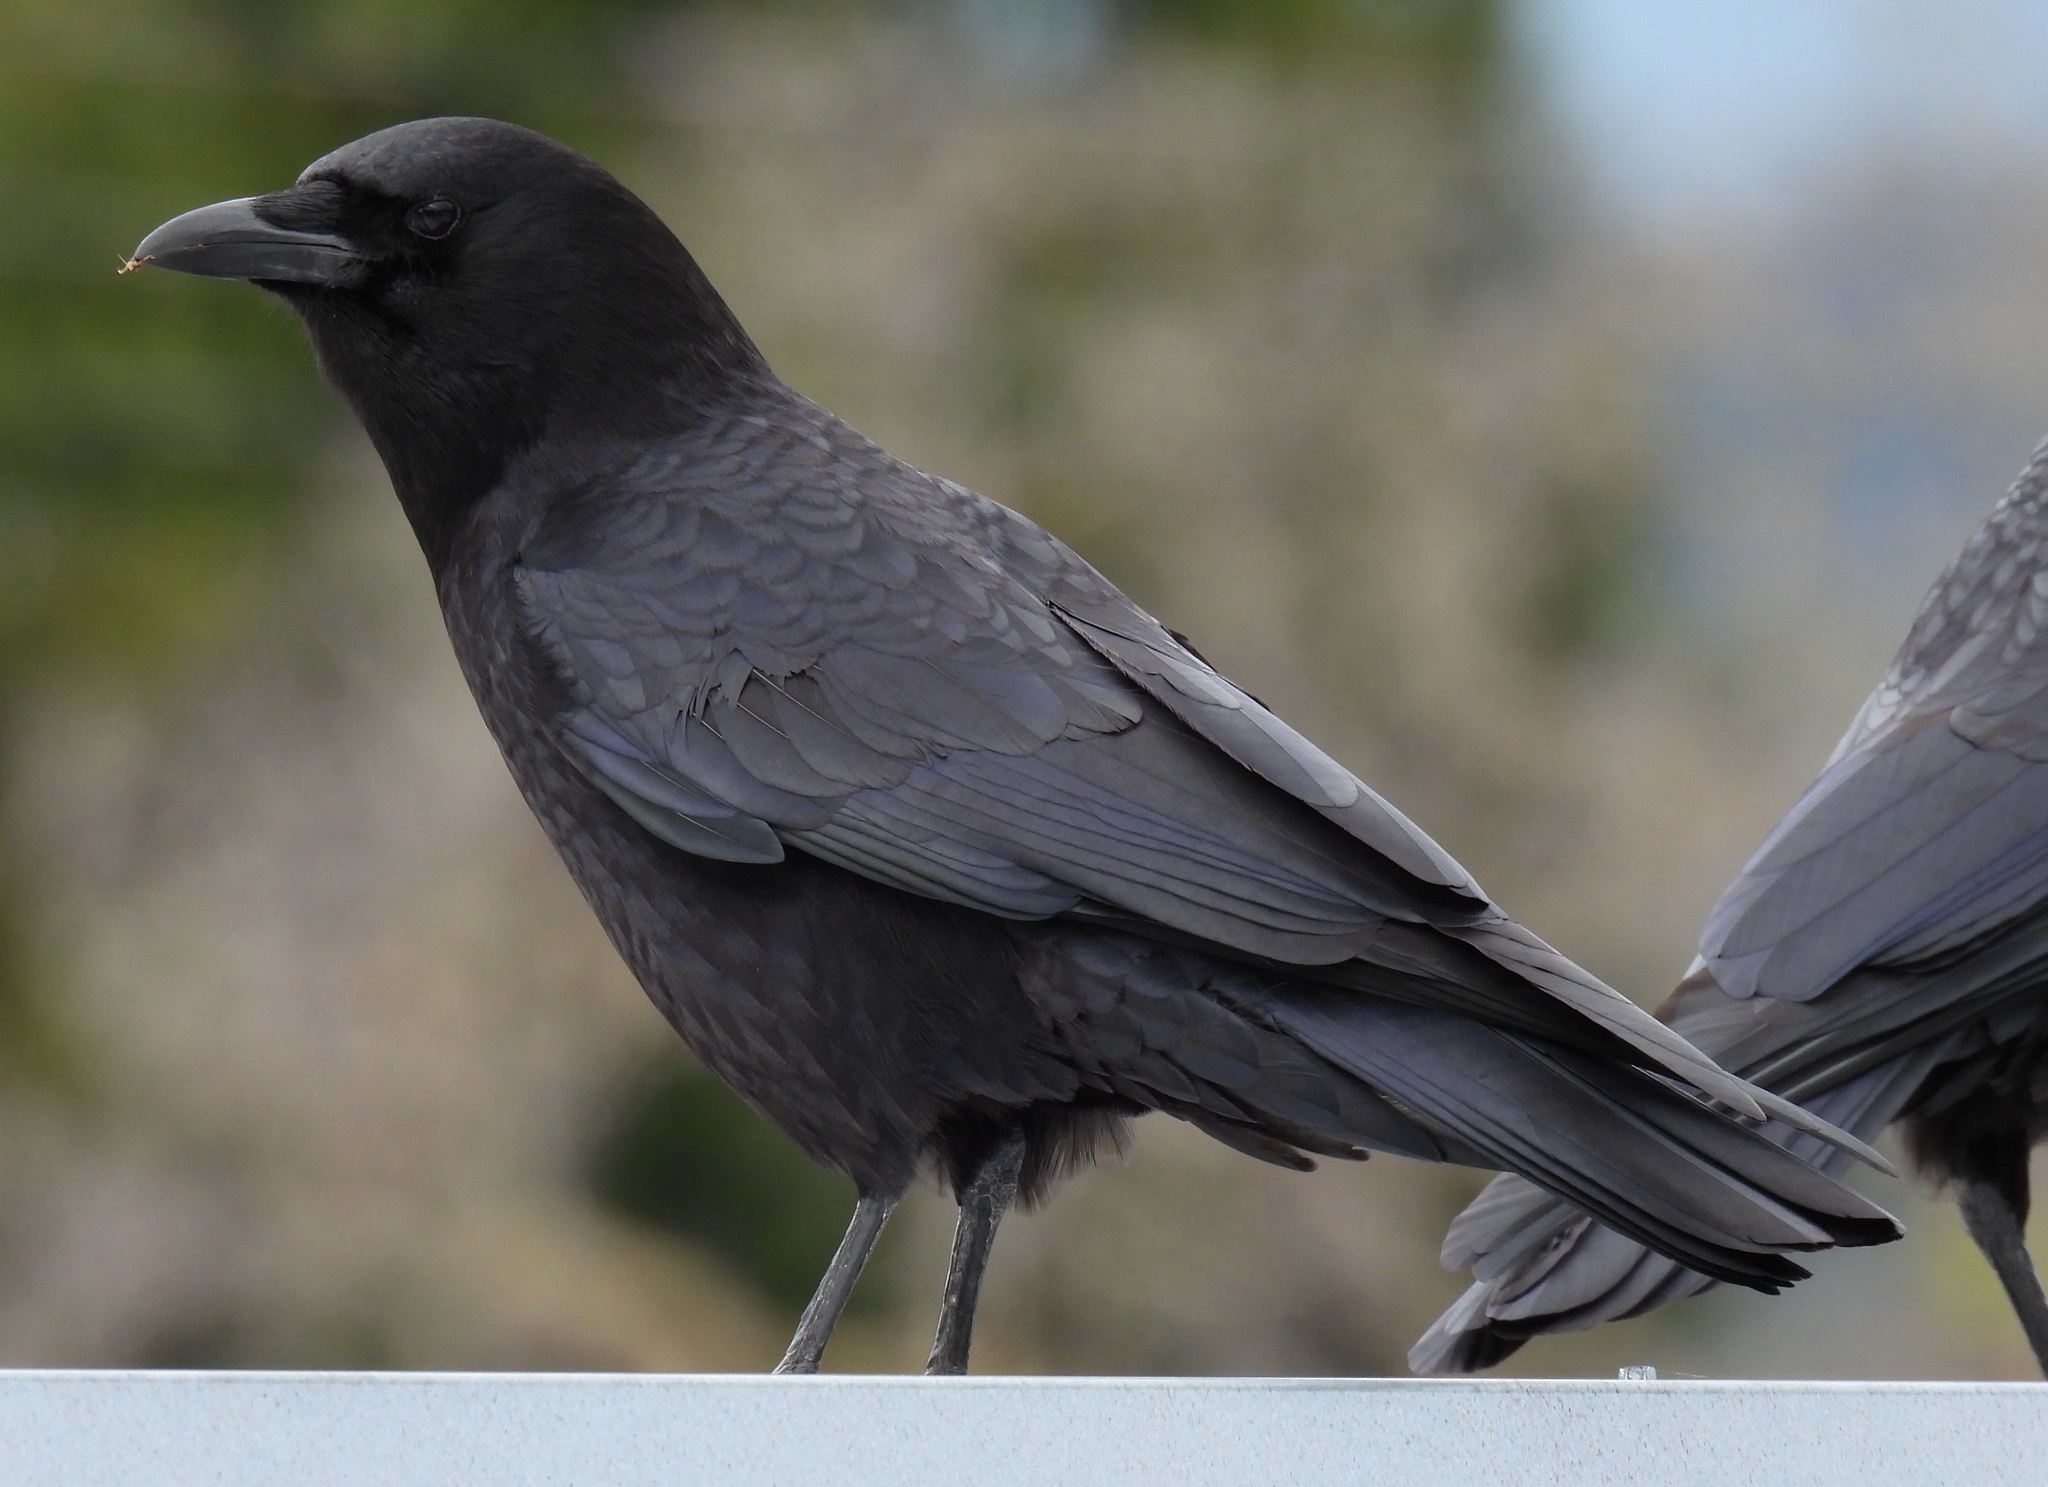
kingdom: Animalia
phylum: Chordata
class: Aves
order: Passeriformes
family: Corvidae
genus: Corvus
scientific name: Corvus brachyrhynchos
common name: American crow
